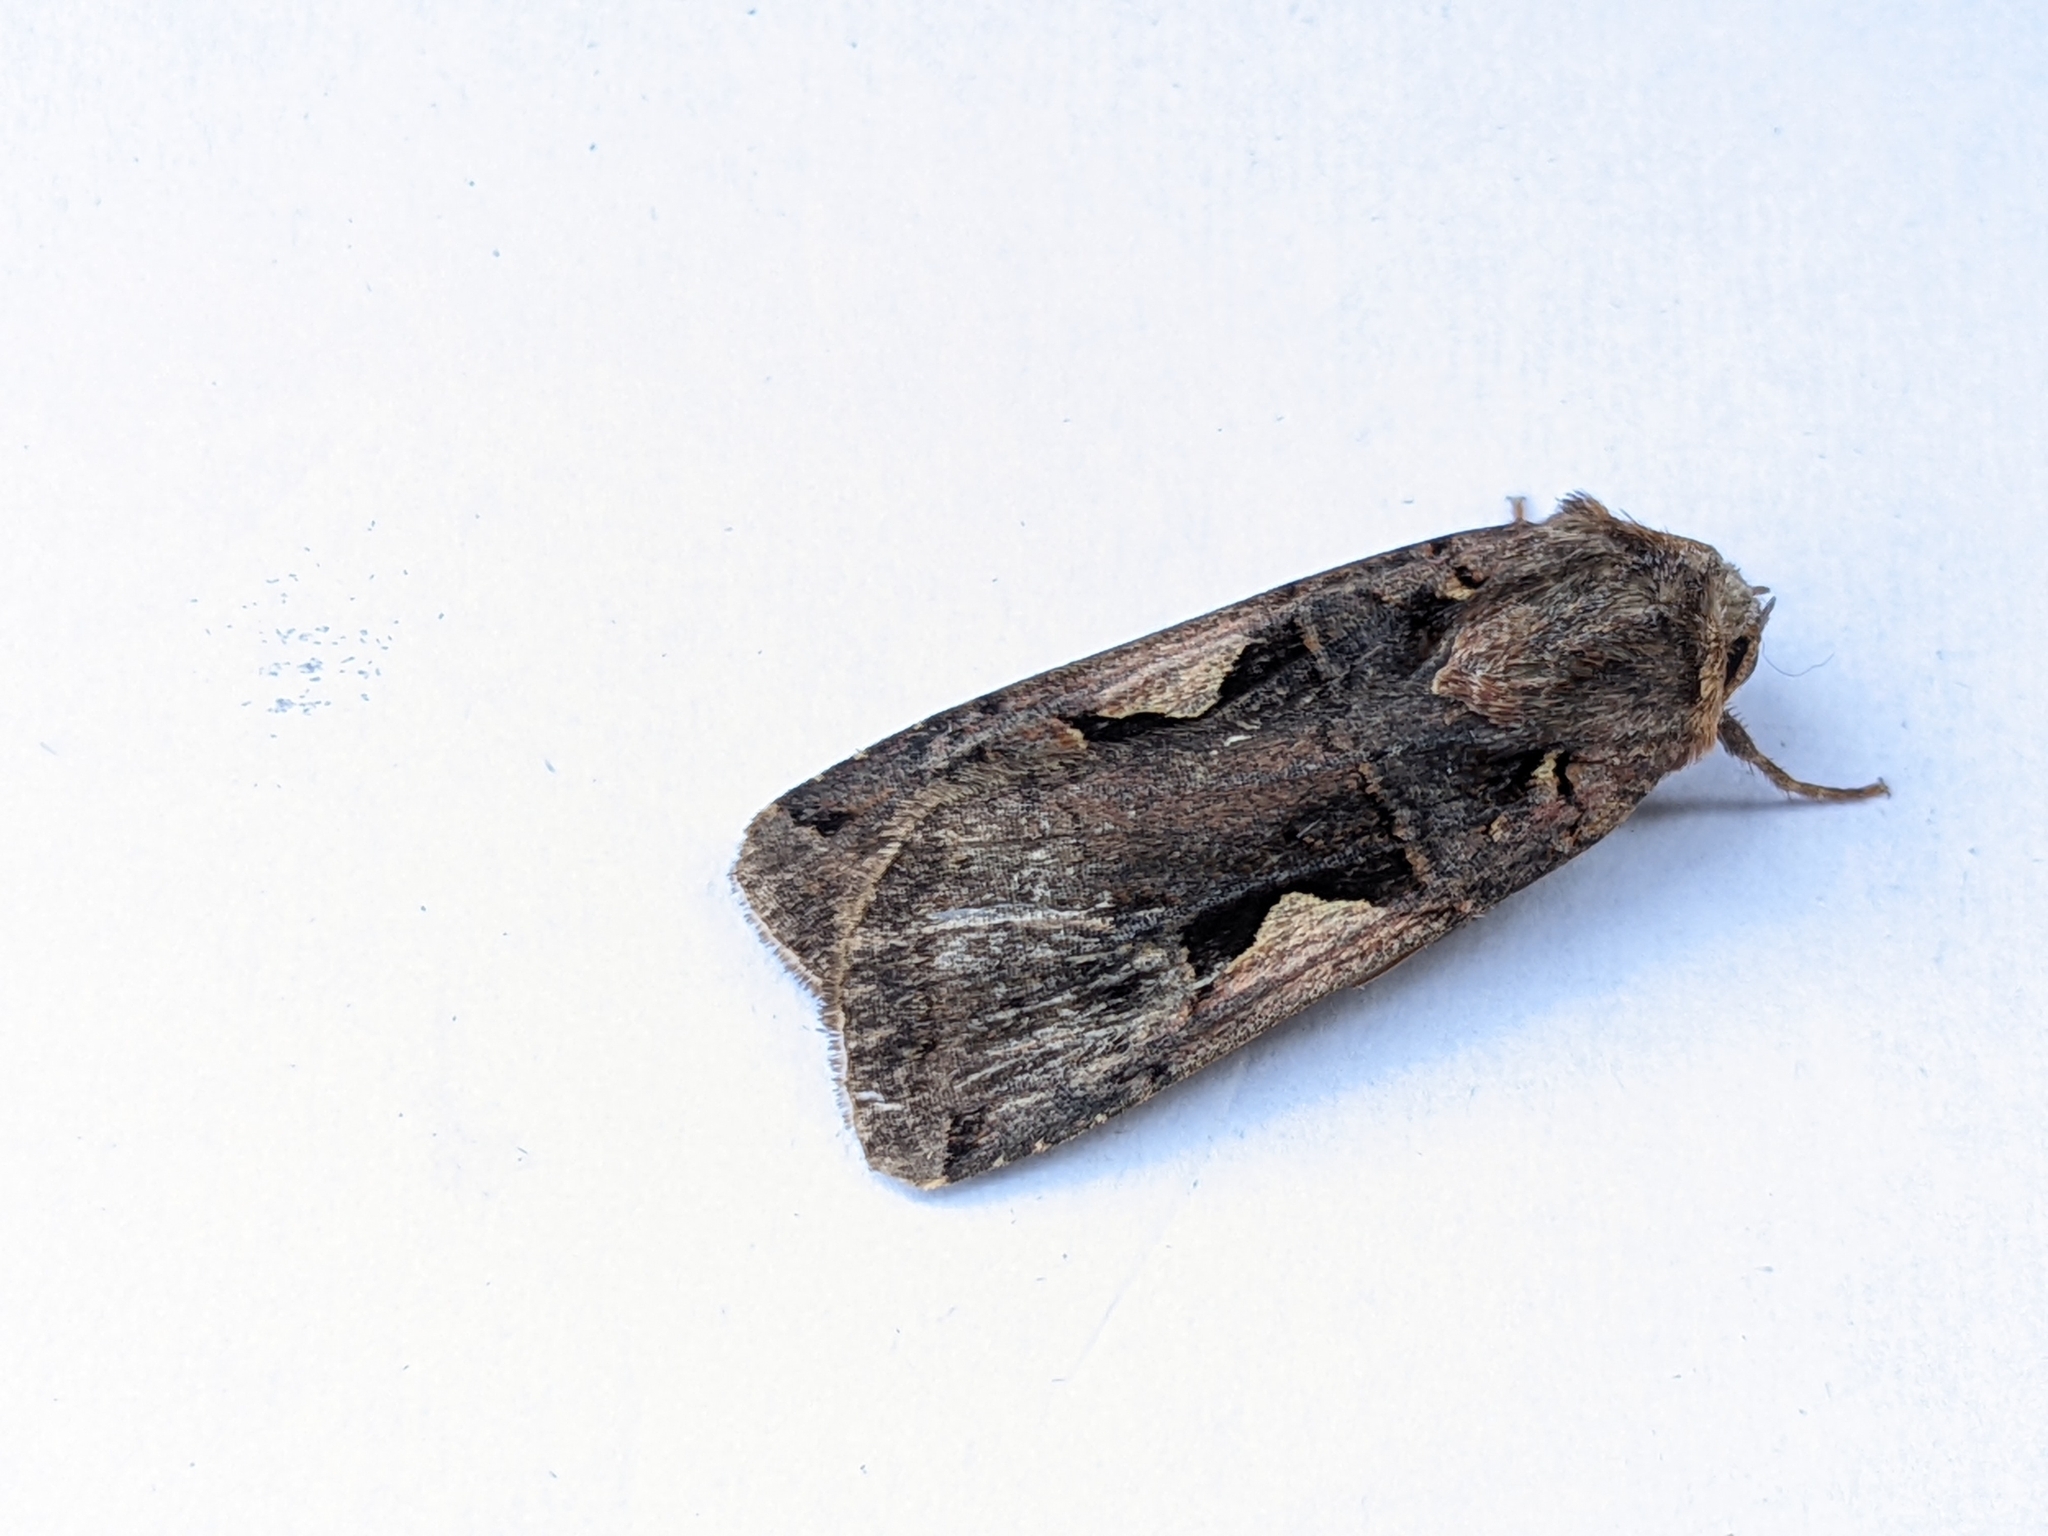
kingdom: Animalia
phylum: Arthropoda
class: Insecta
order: Lepidoptera
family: Noctuidae
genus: Xestia
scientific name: Xestia c-nigrum
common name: Setaceous hebrew character
